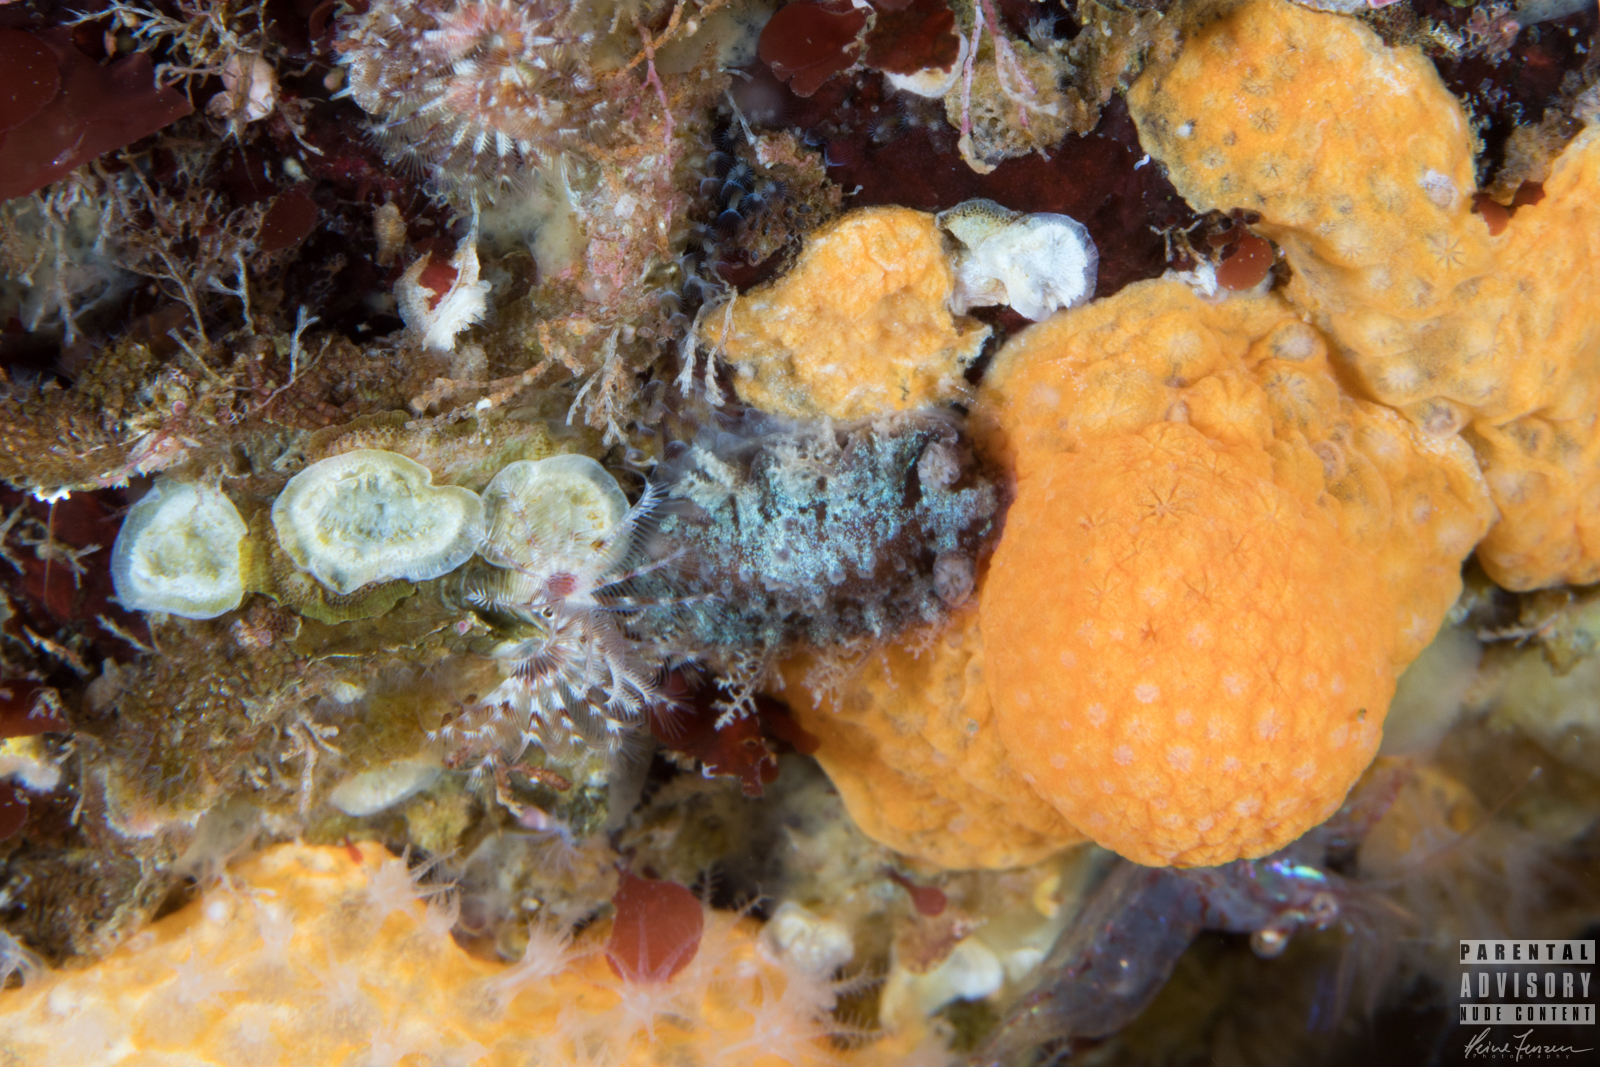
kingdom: Animalia
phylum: Mollusca
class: Gastropoda
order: Nudibranchia
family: Tritoniidae
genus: Duvaucelia
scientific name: Duvaucelia plebeia
